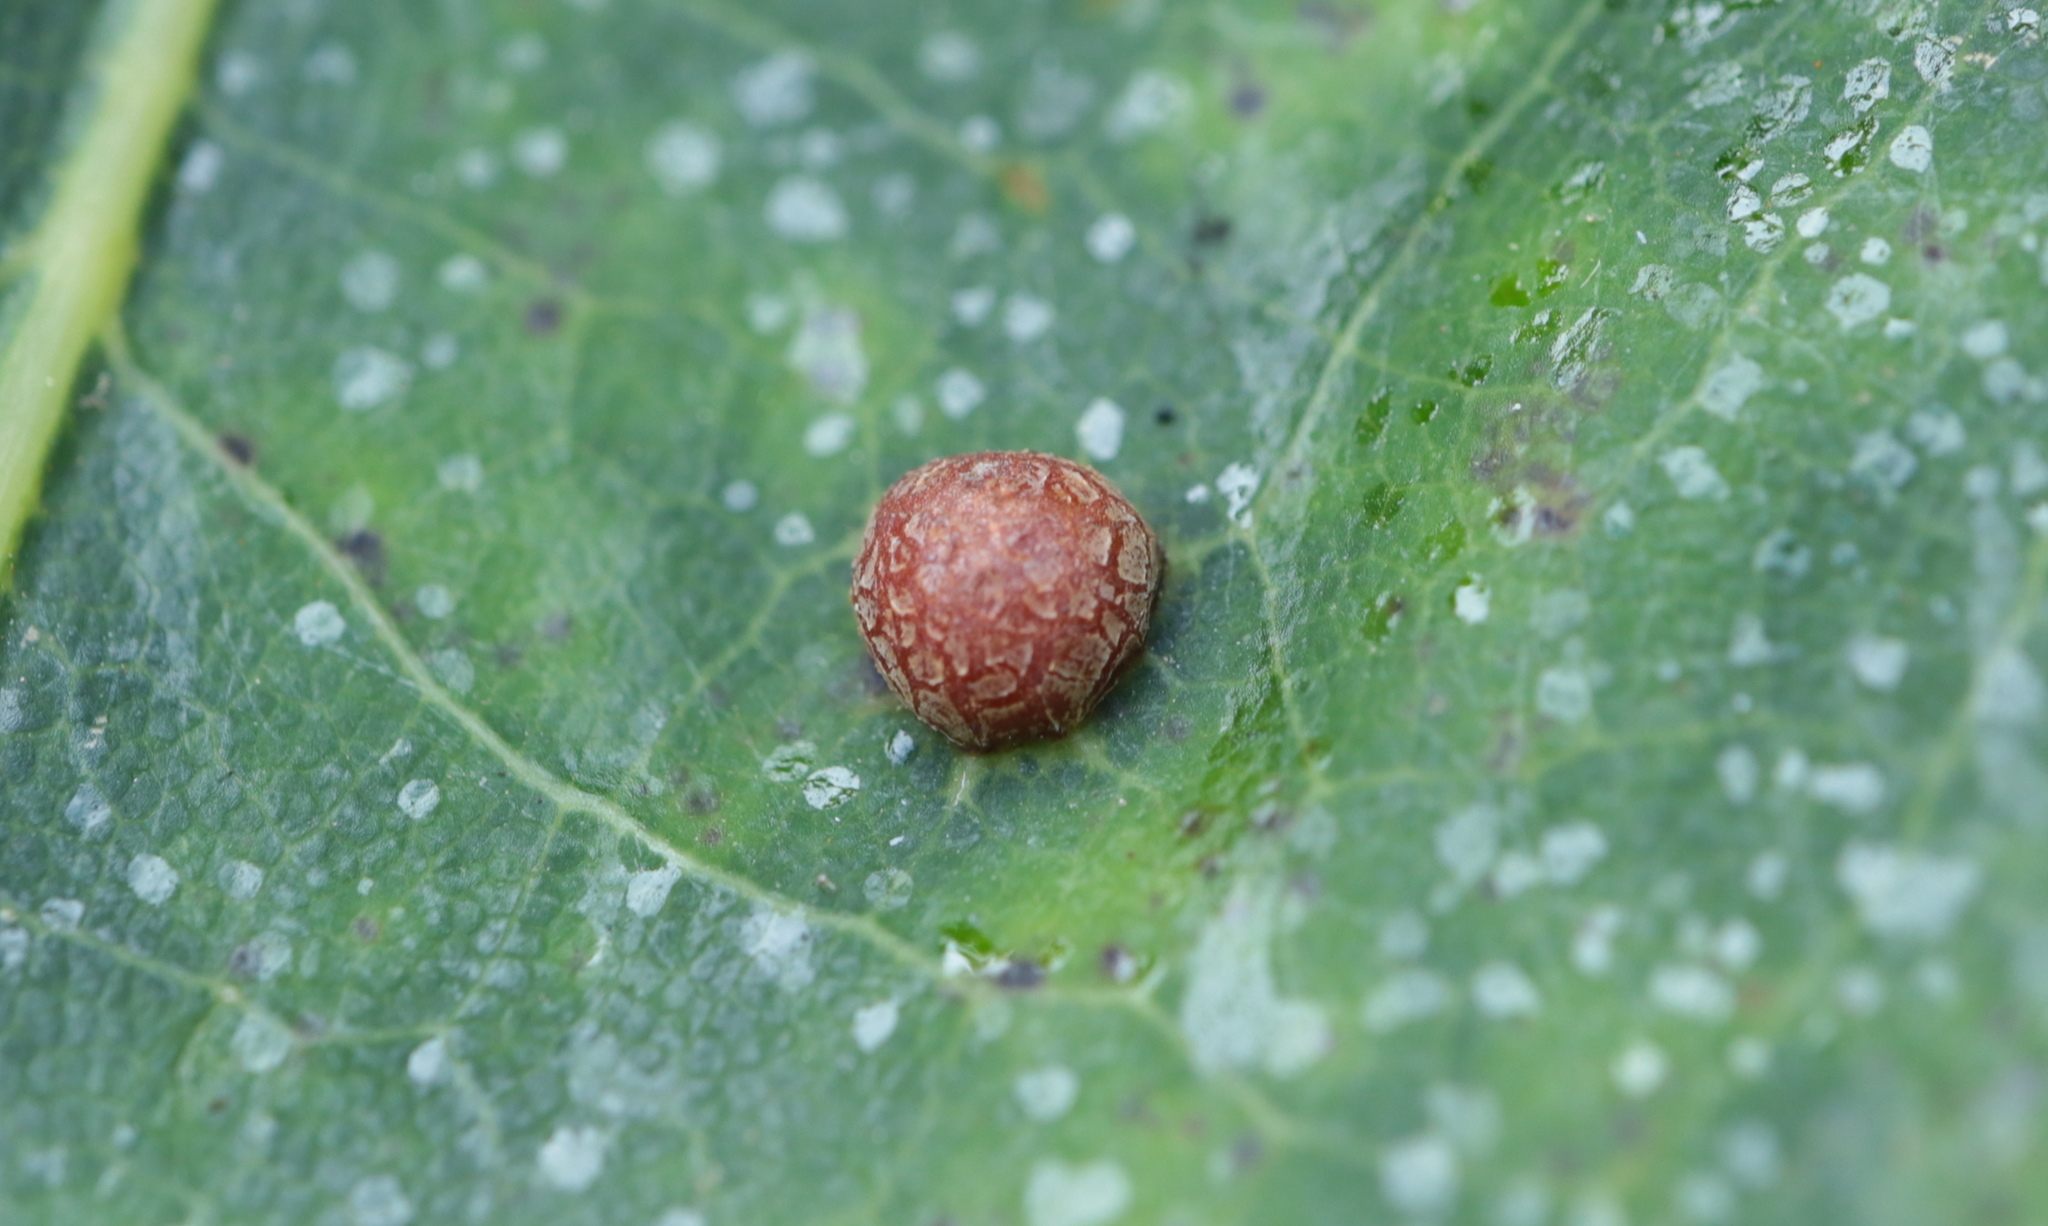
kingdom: Animalia
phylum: Arthropoda
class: Insecta
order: Diptera
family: Cecidomyiidae
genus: Polystepha
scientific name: Polystepha pilulae
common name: Oak leaf gall midge
